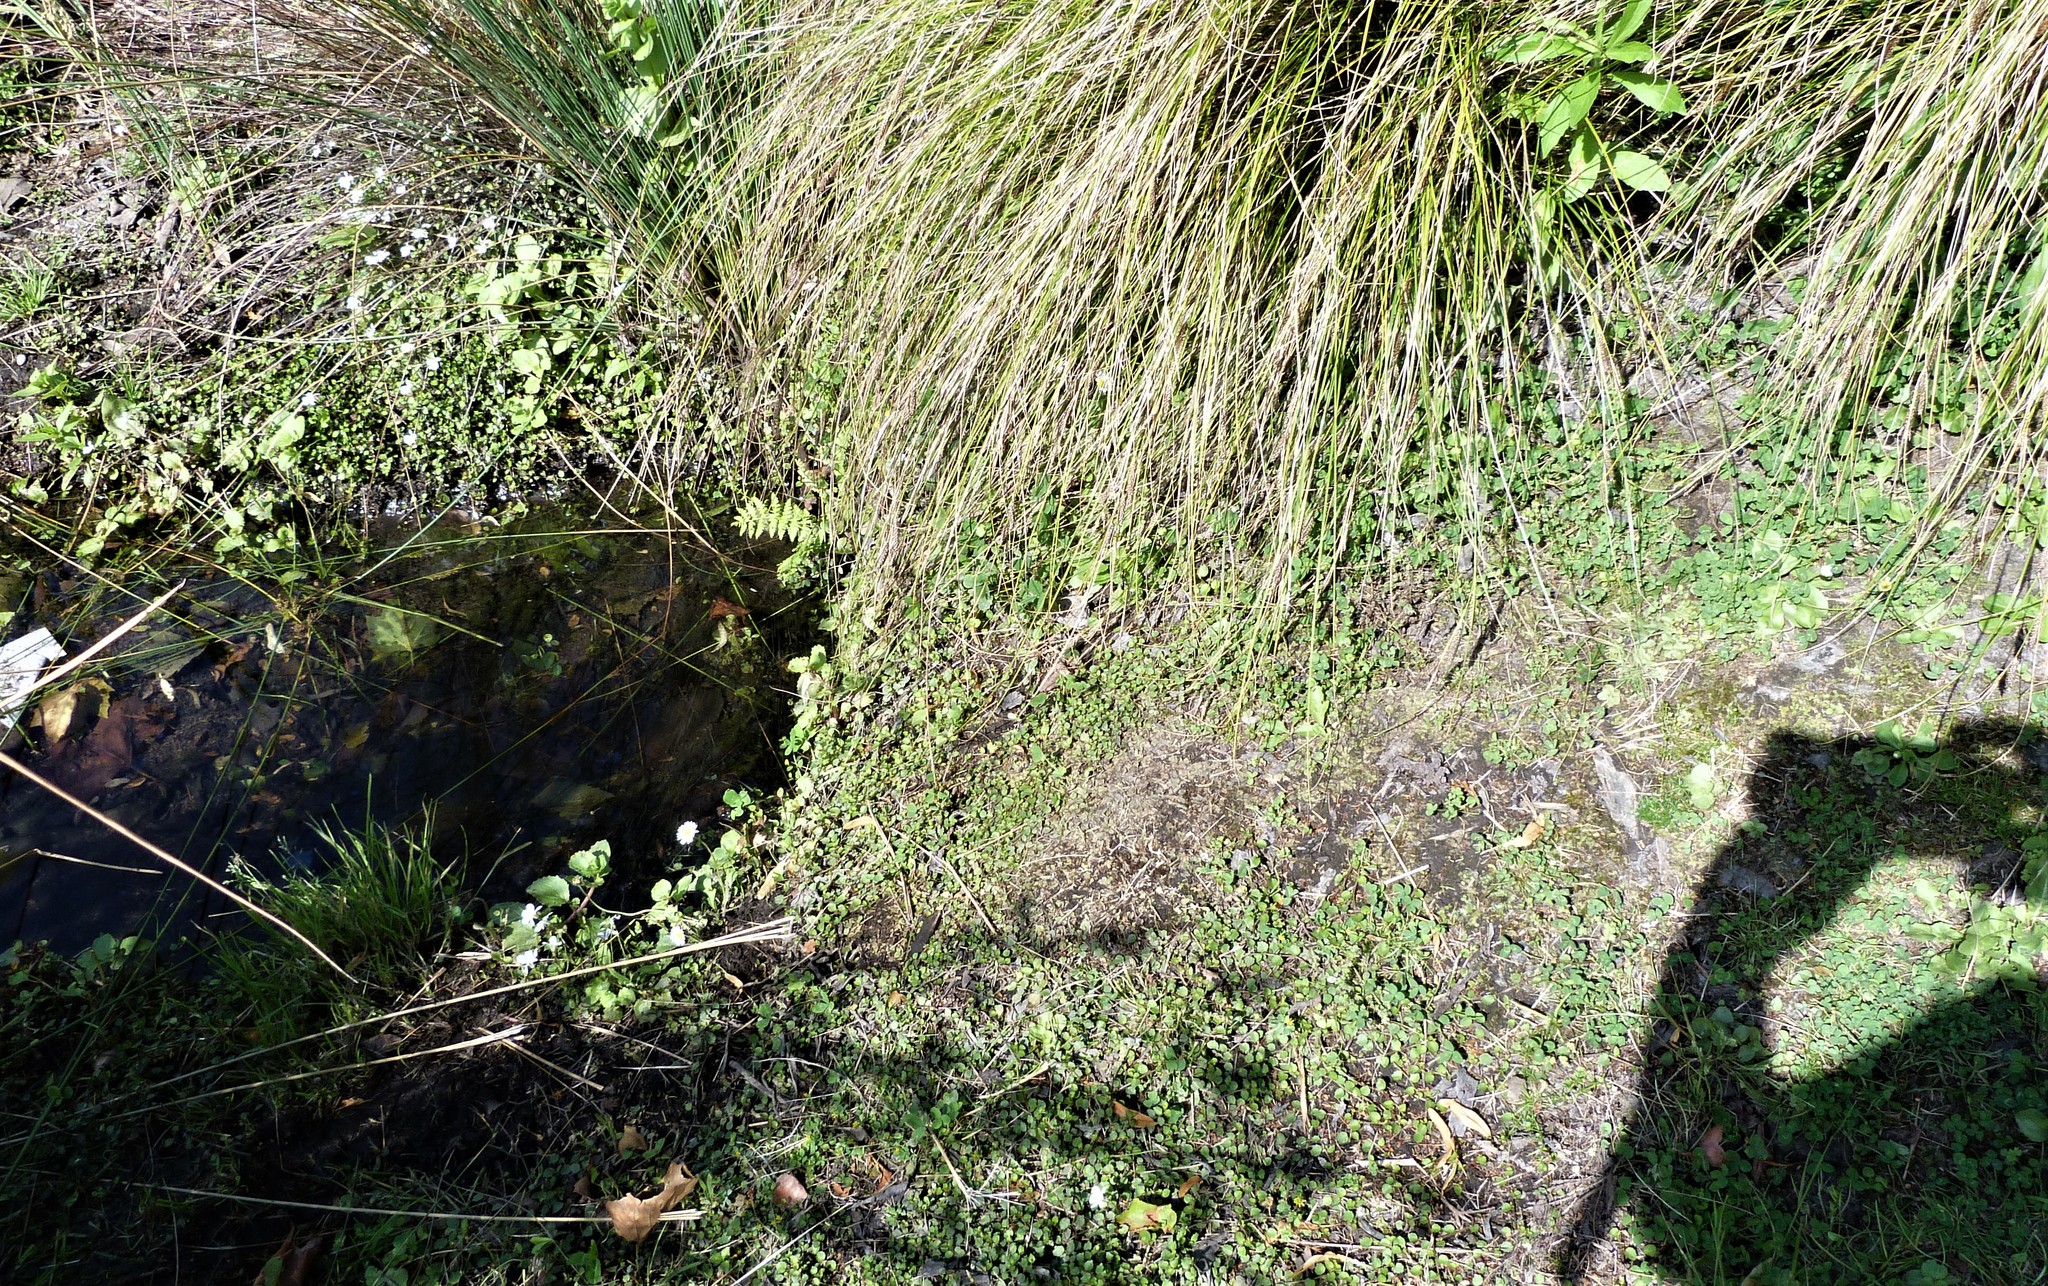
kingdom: Plantae
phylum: Tracheophyta
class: Magnoliopsida
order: Asterales
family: Campanulaceae
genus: Lobelia
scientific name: Lobelia angulata
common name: Lawn lobelia
